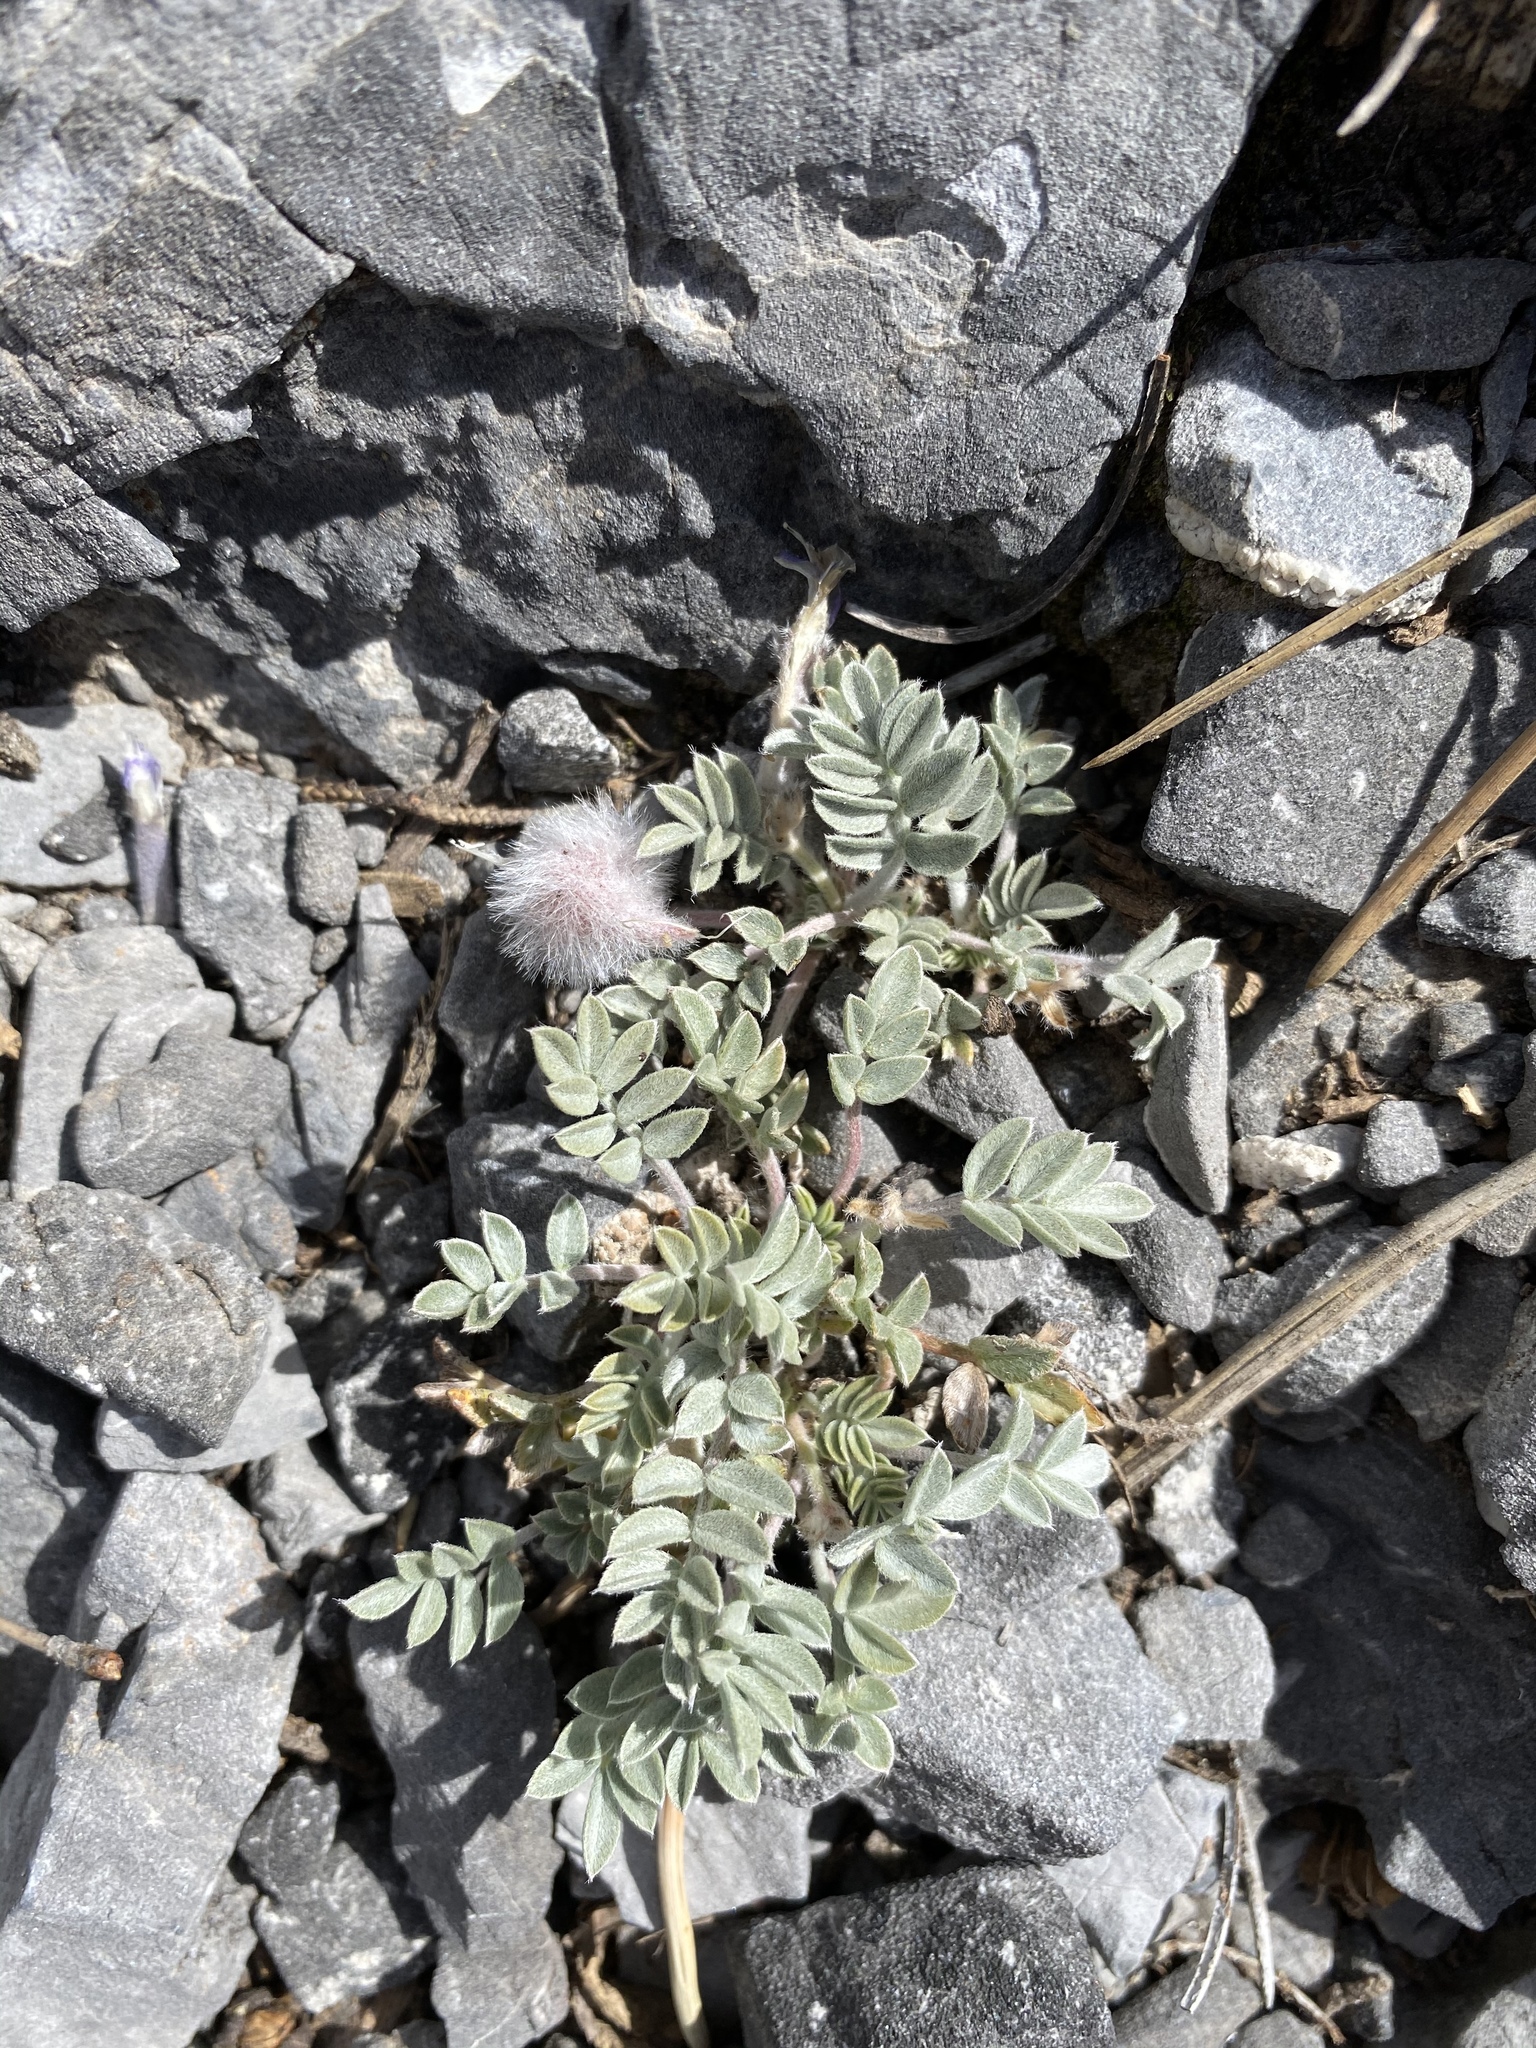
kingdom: Plantae
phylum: Tracheophyta
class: Magnoliopsida
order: Fabales
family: Fabaceae
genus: Astragalus
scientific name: Astragalus newberryi
